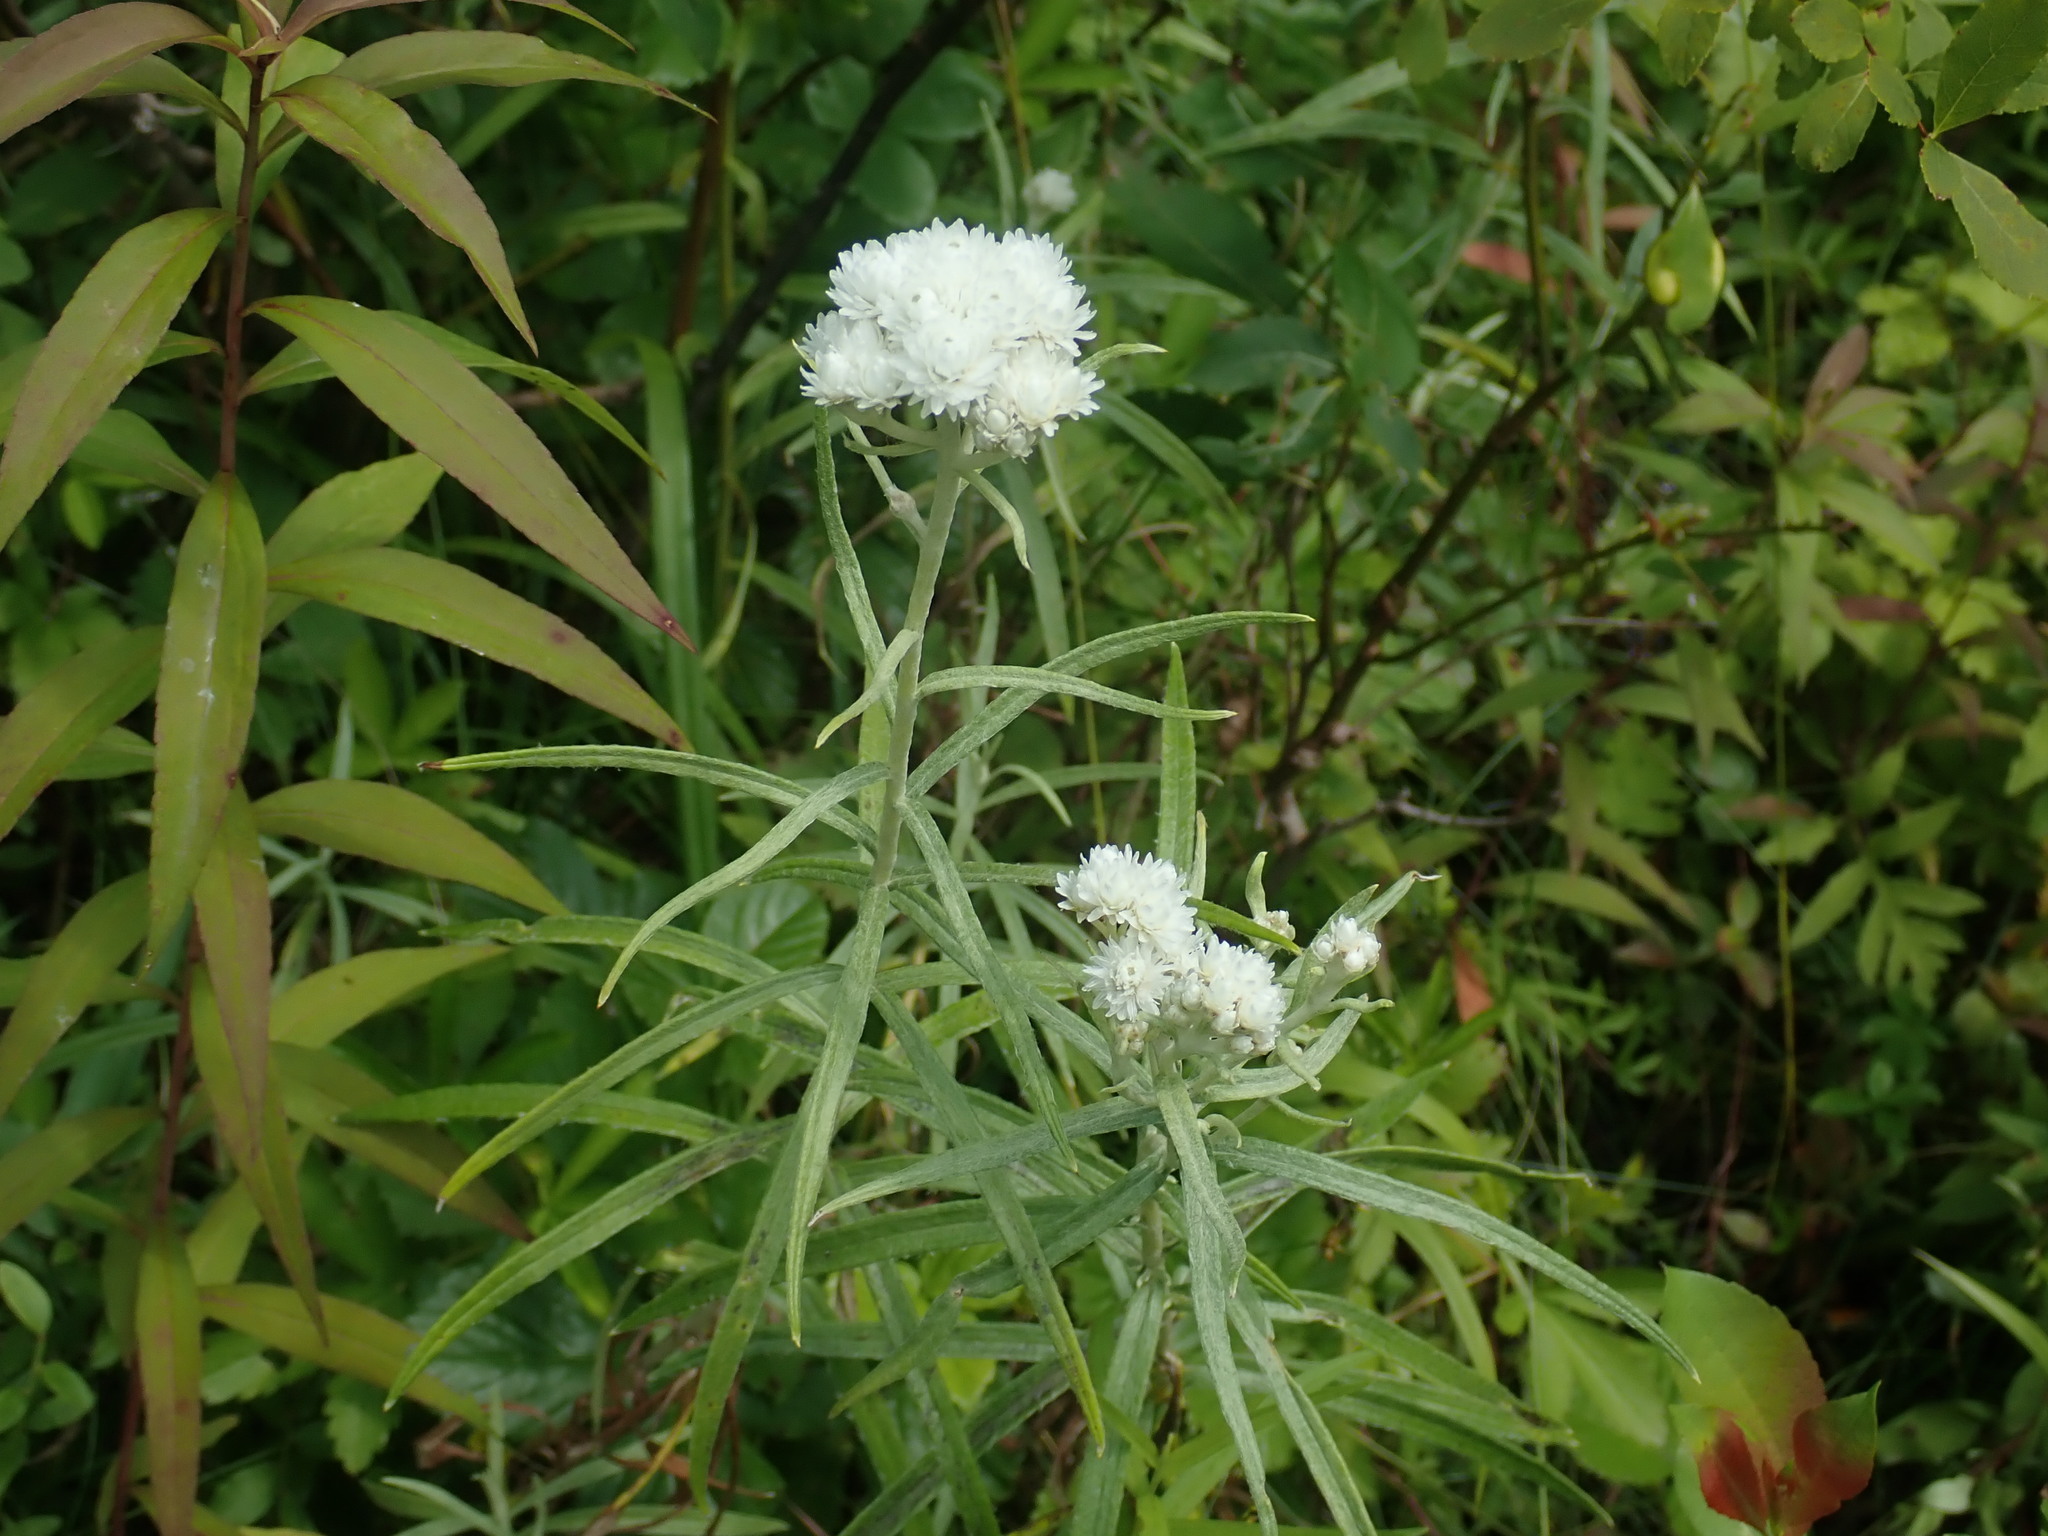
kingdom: Plantae
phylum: Tracheophyta
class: Magnoliopsida
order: Asterales
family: Asteraceae
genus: Anaphalis
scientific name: Anaphalis margaritacea
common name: Pearly everlasting
